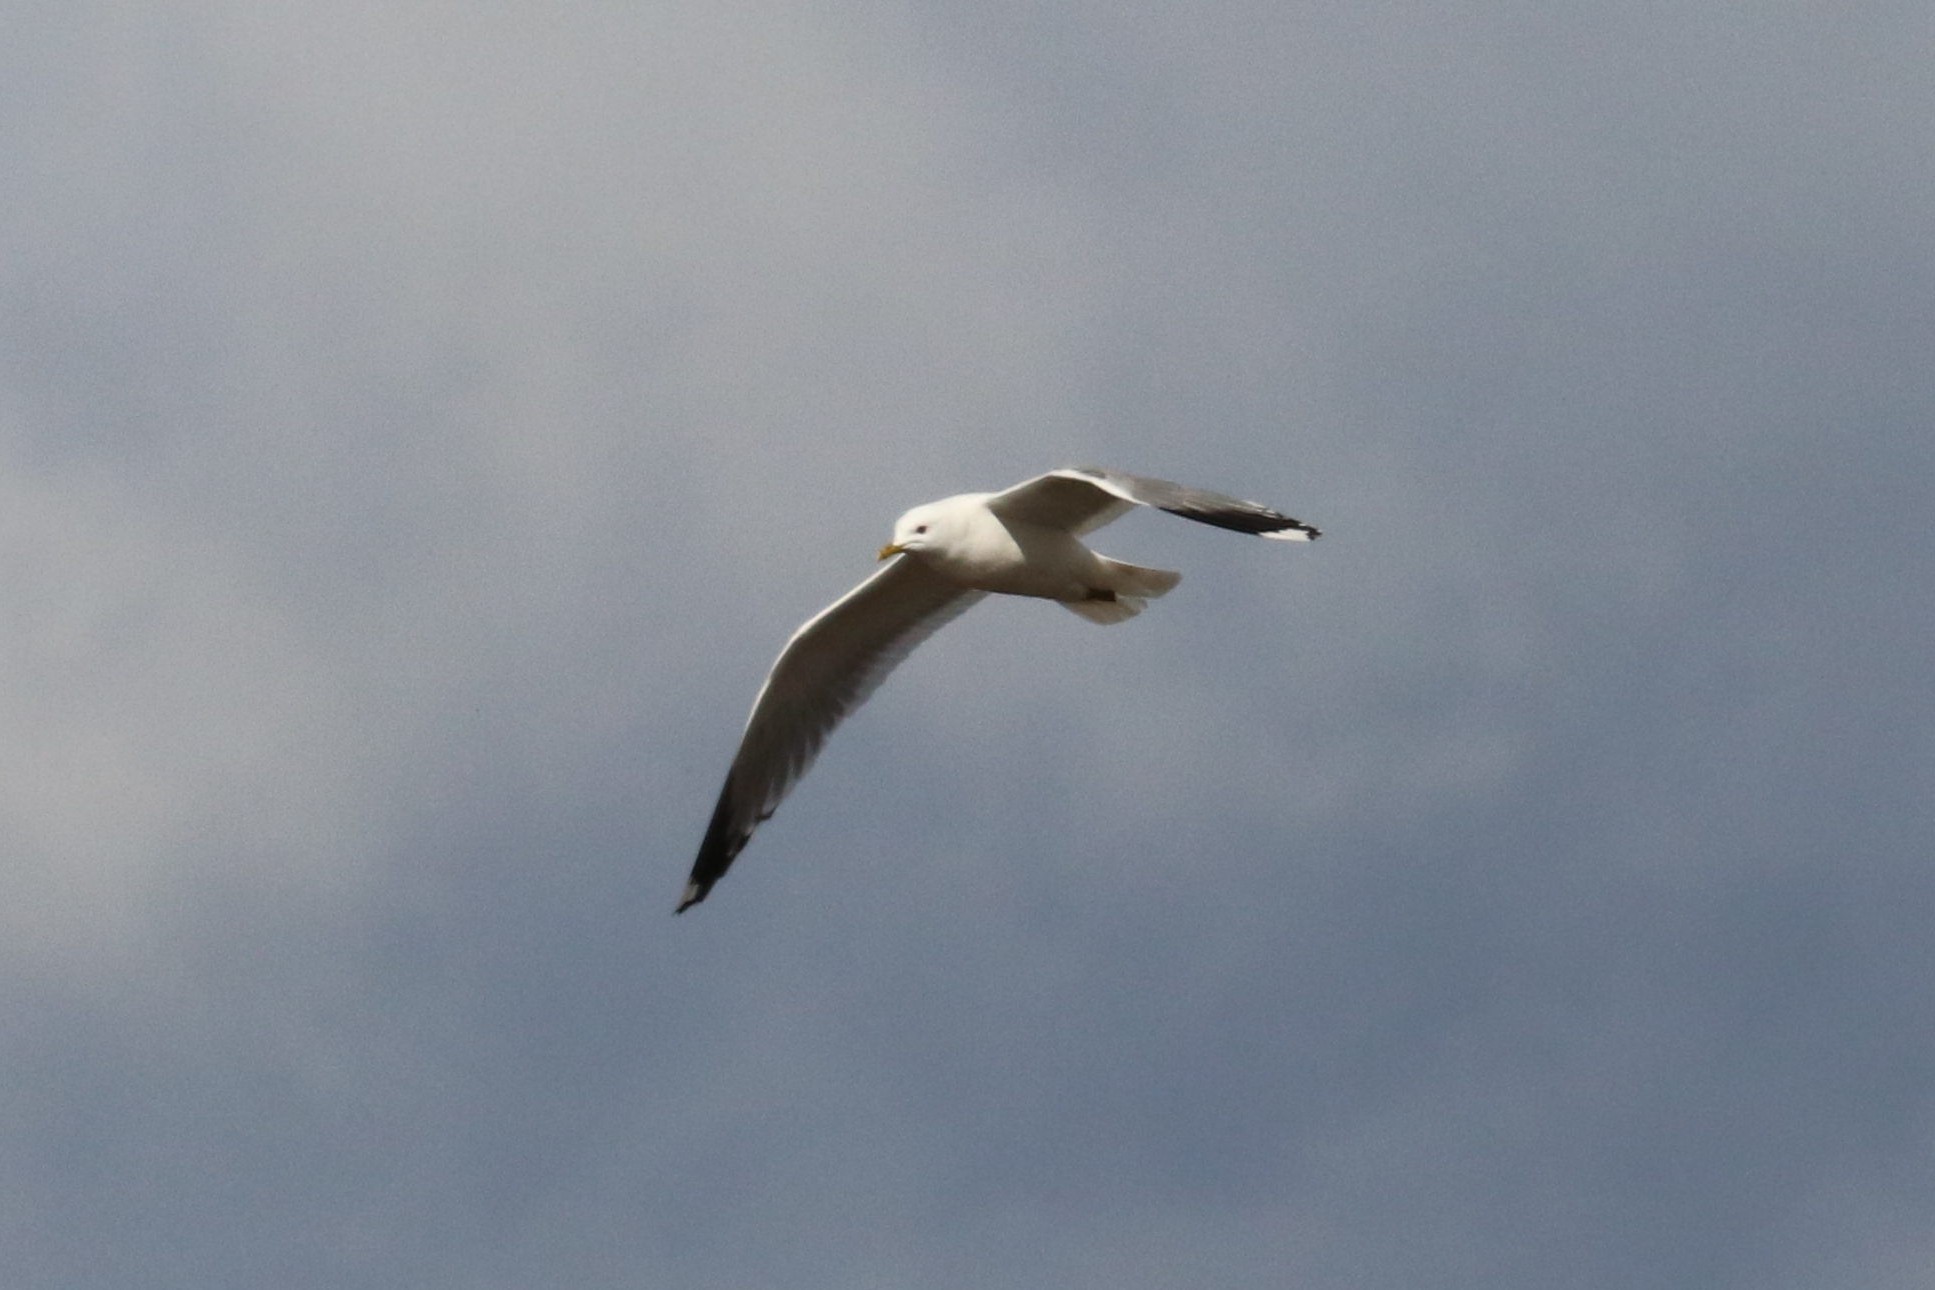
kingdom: Animalia
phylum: Chordata
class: Aves
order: Charadriiformes
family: Laridae
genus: Larus
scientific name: Larus canus
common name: Mew gull
